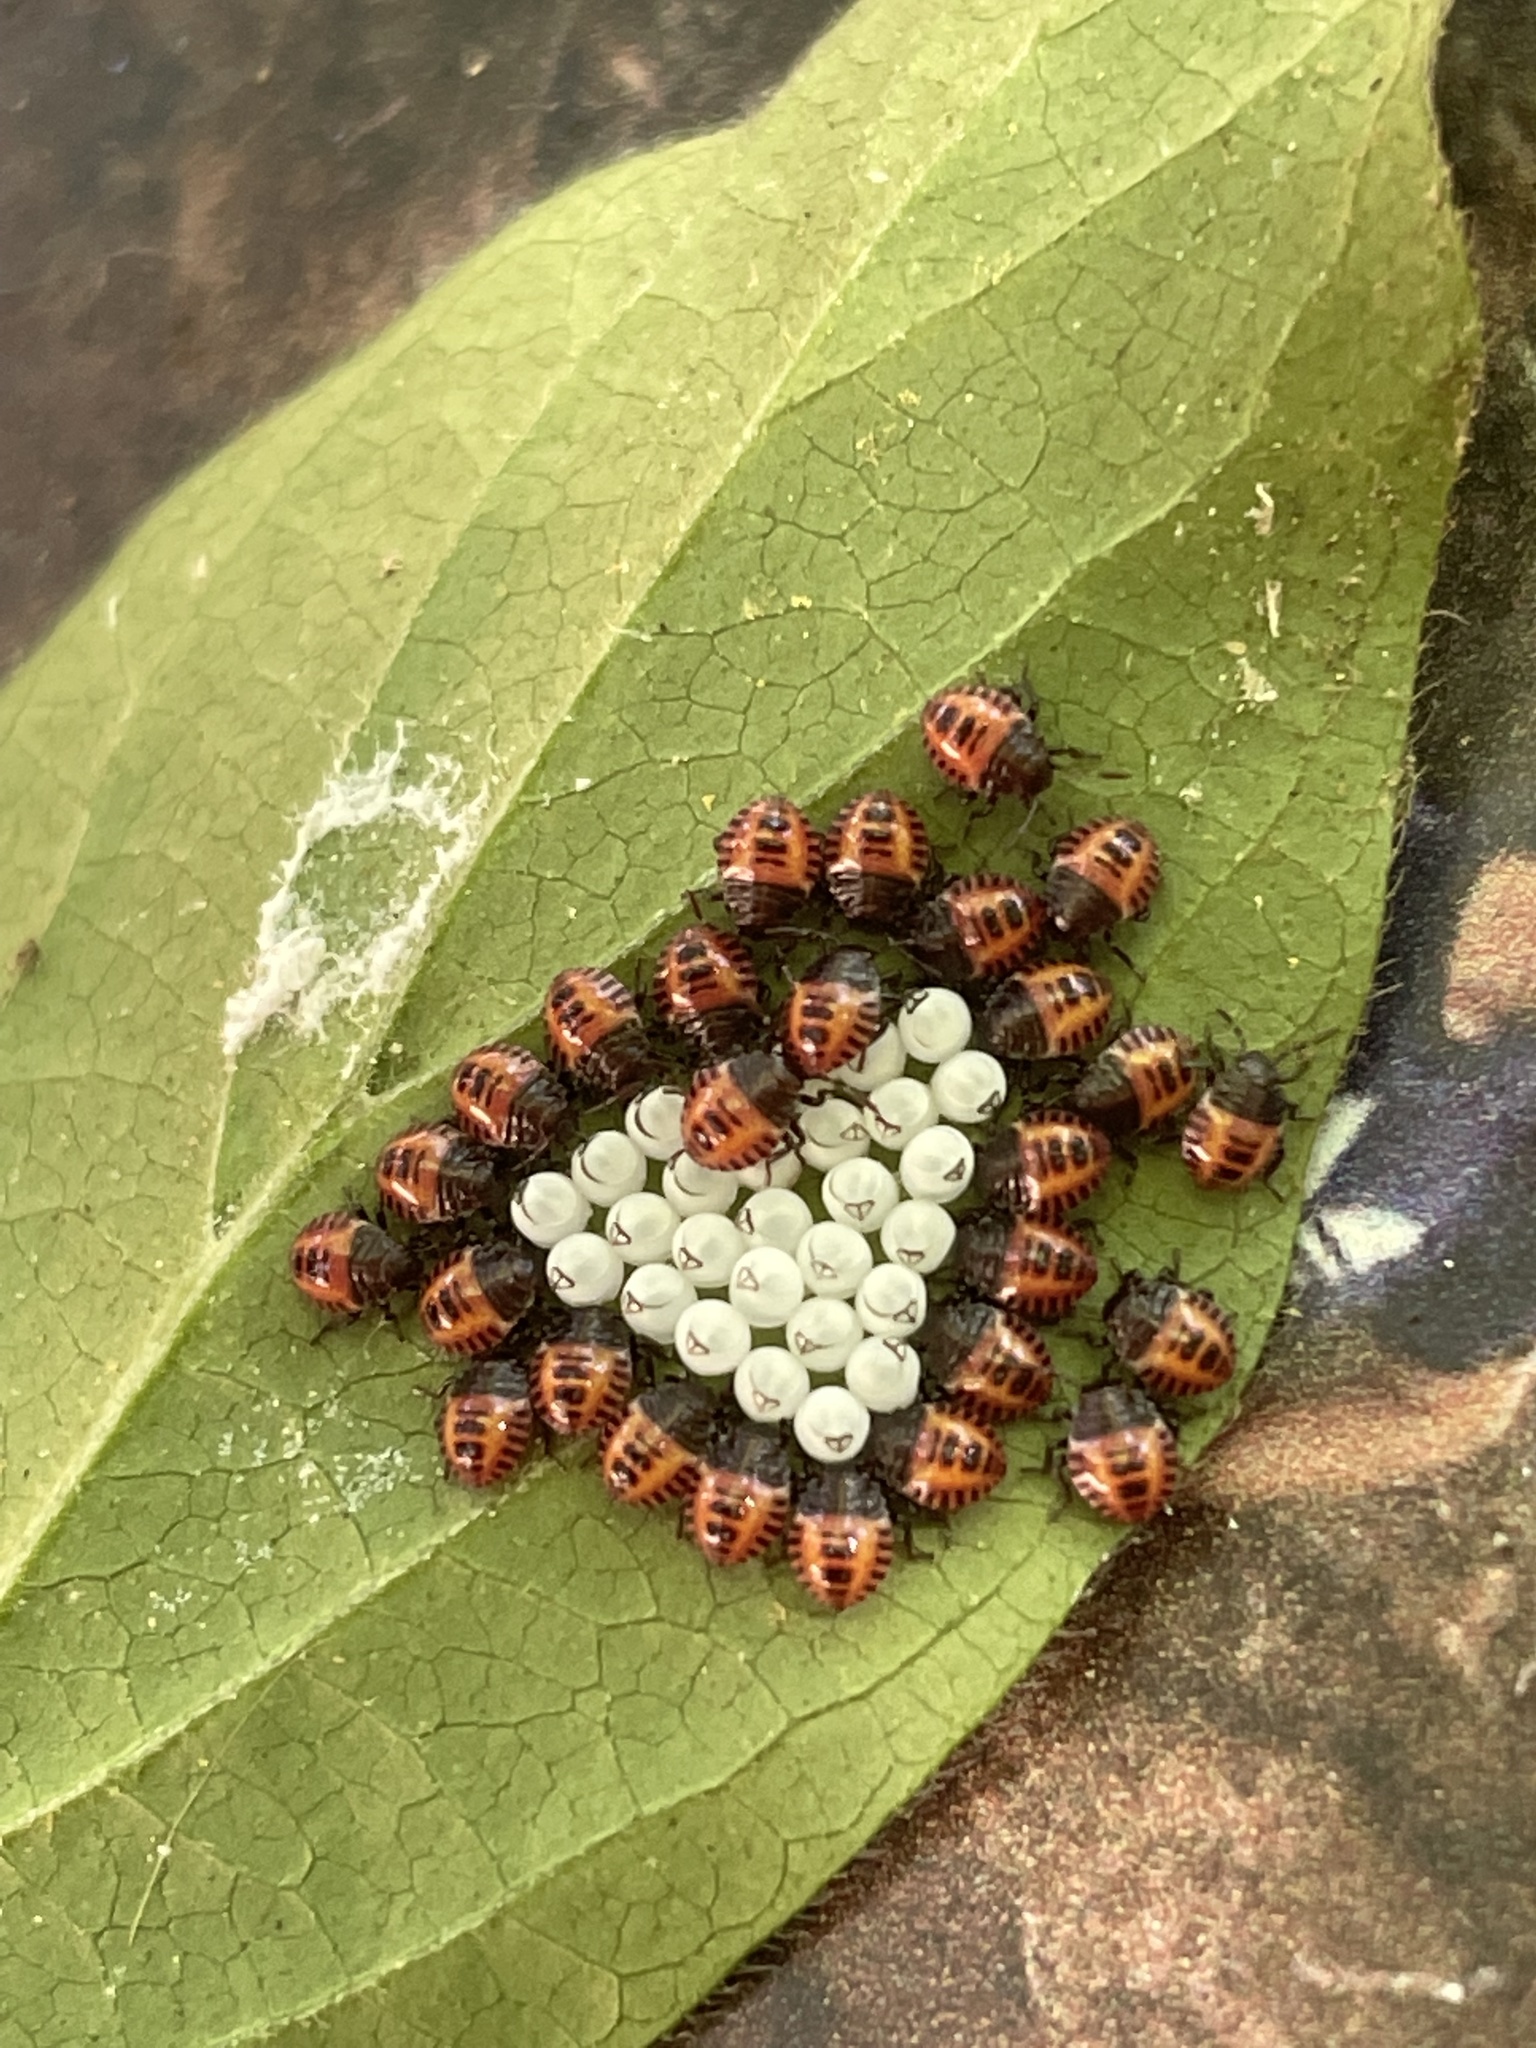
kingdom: Animalia
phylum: Arthropoda
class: Insecta
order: Hemiptera
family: Pentatomidae
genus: Halyomorpha
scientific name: Halyomorpha halys
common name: Brown marmorated stink bug
